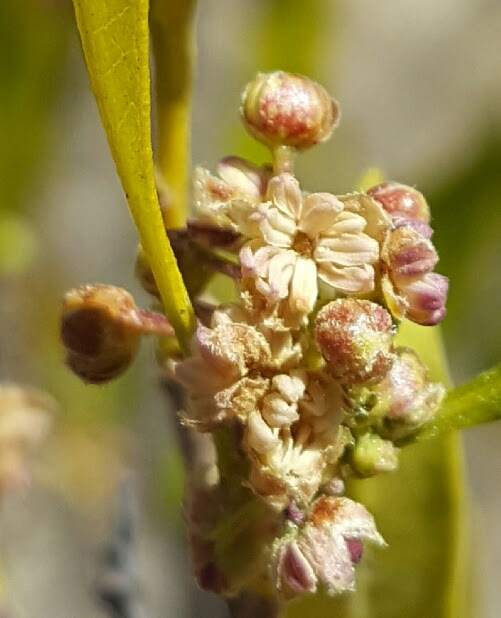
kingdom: Plantae
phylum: Tracheophyta
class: Magnoliopsida
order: Sapindales
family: Sapindaceae
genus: Dodonaea
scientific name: Dodonaea viscosa
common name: Hopbush
